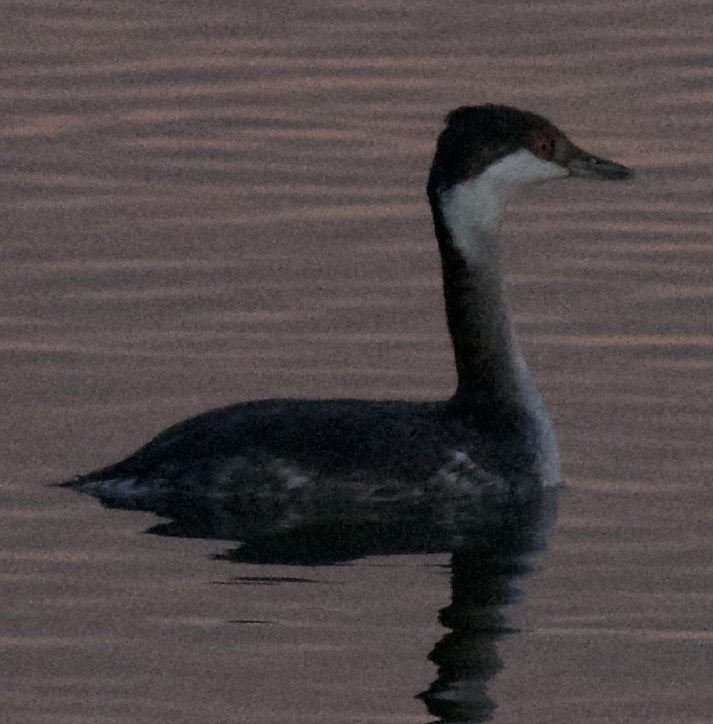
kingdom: Animalia
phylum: Chordata
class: Aves
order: Podicipediformes
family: Podicipedidae
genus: Podiceps
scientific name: Podiceps auritus
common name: Horned grebe
